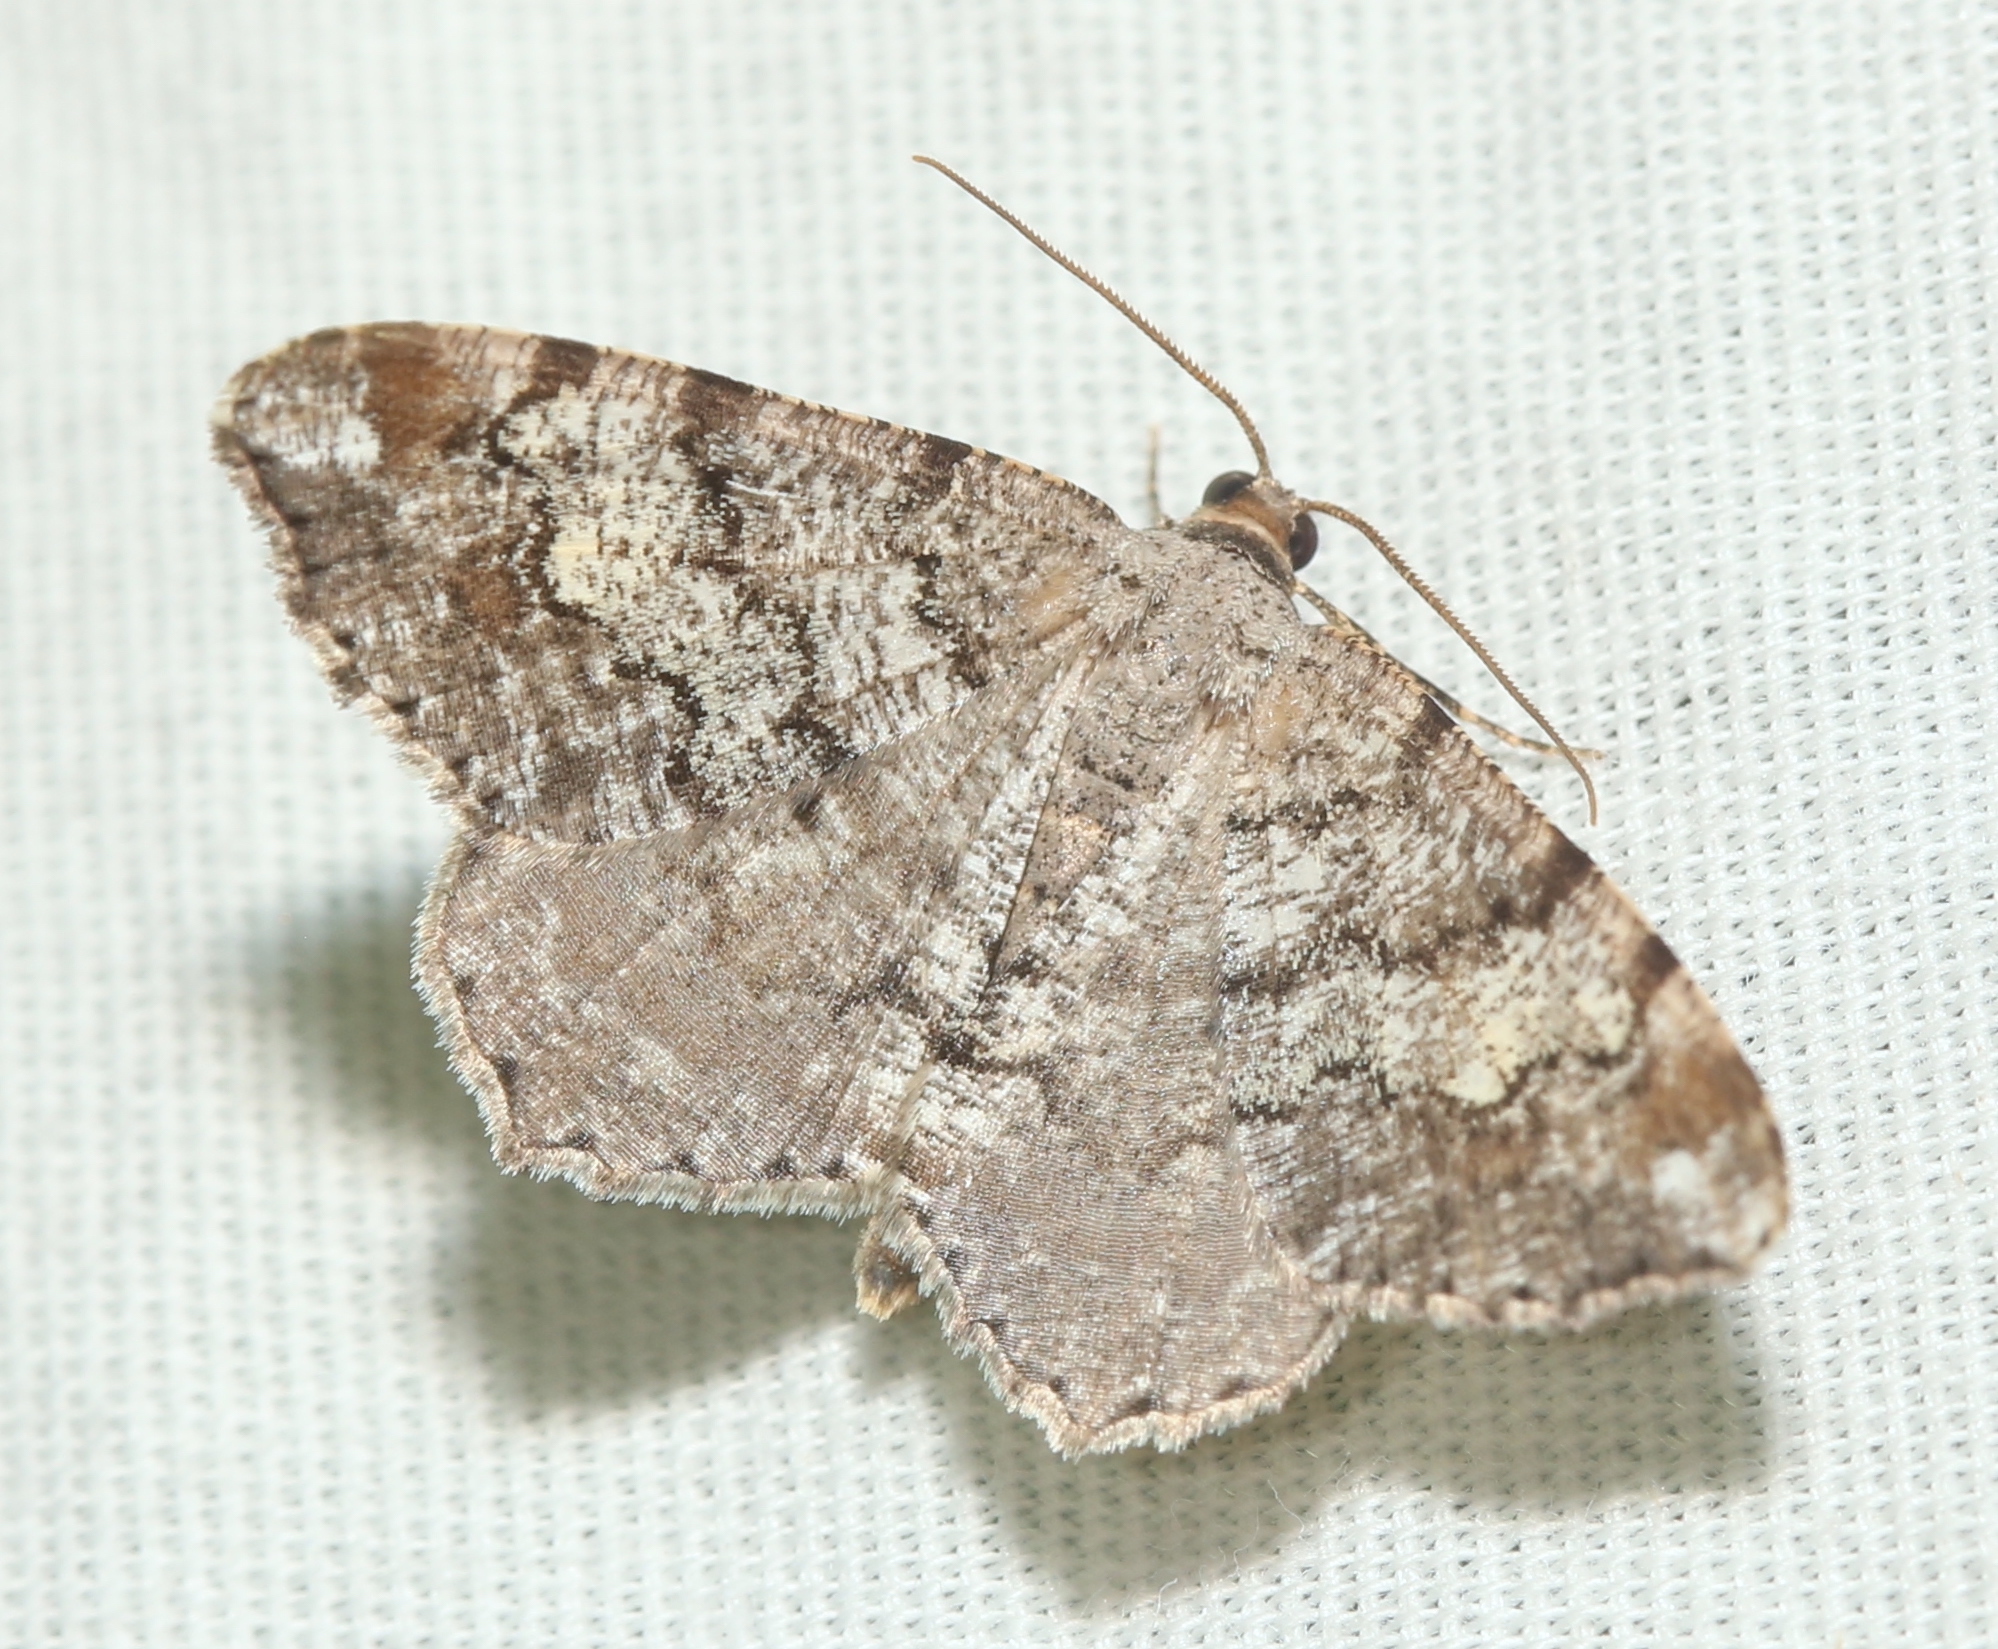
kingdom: Animalia
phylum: Arthropoda
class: Insecta
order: Lepidoptera
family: Geometridae
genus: Macaria
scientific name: Macaria granitata
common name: Granite moth
